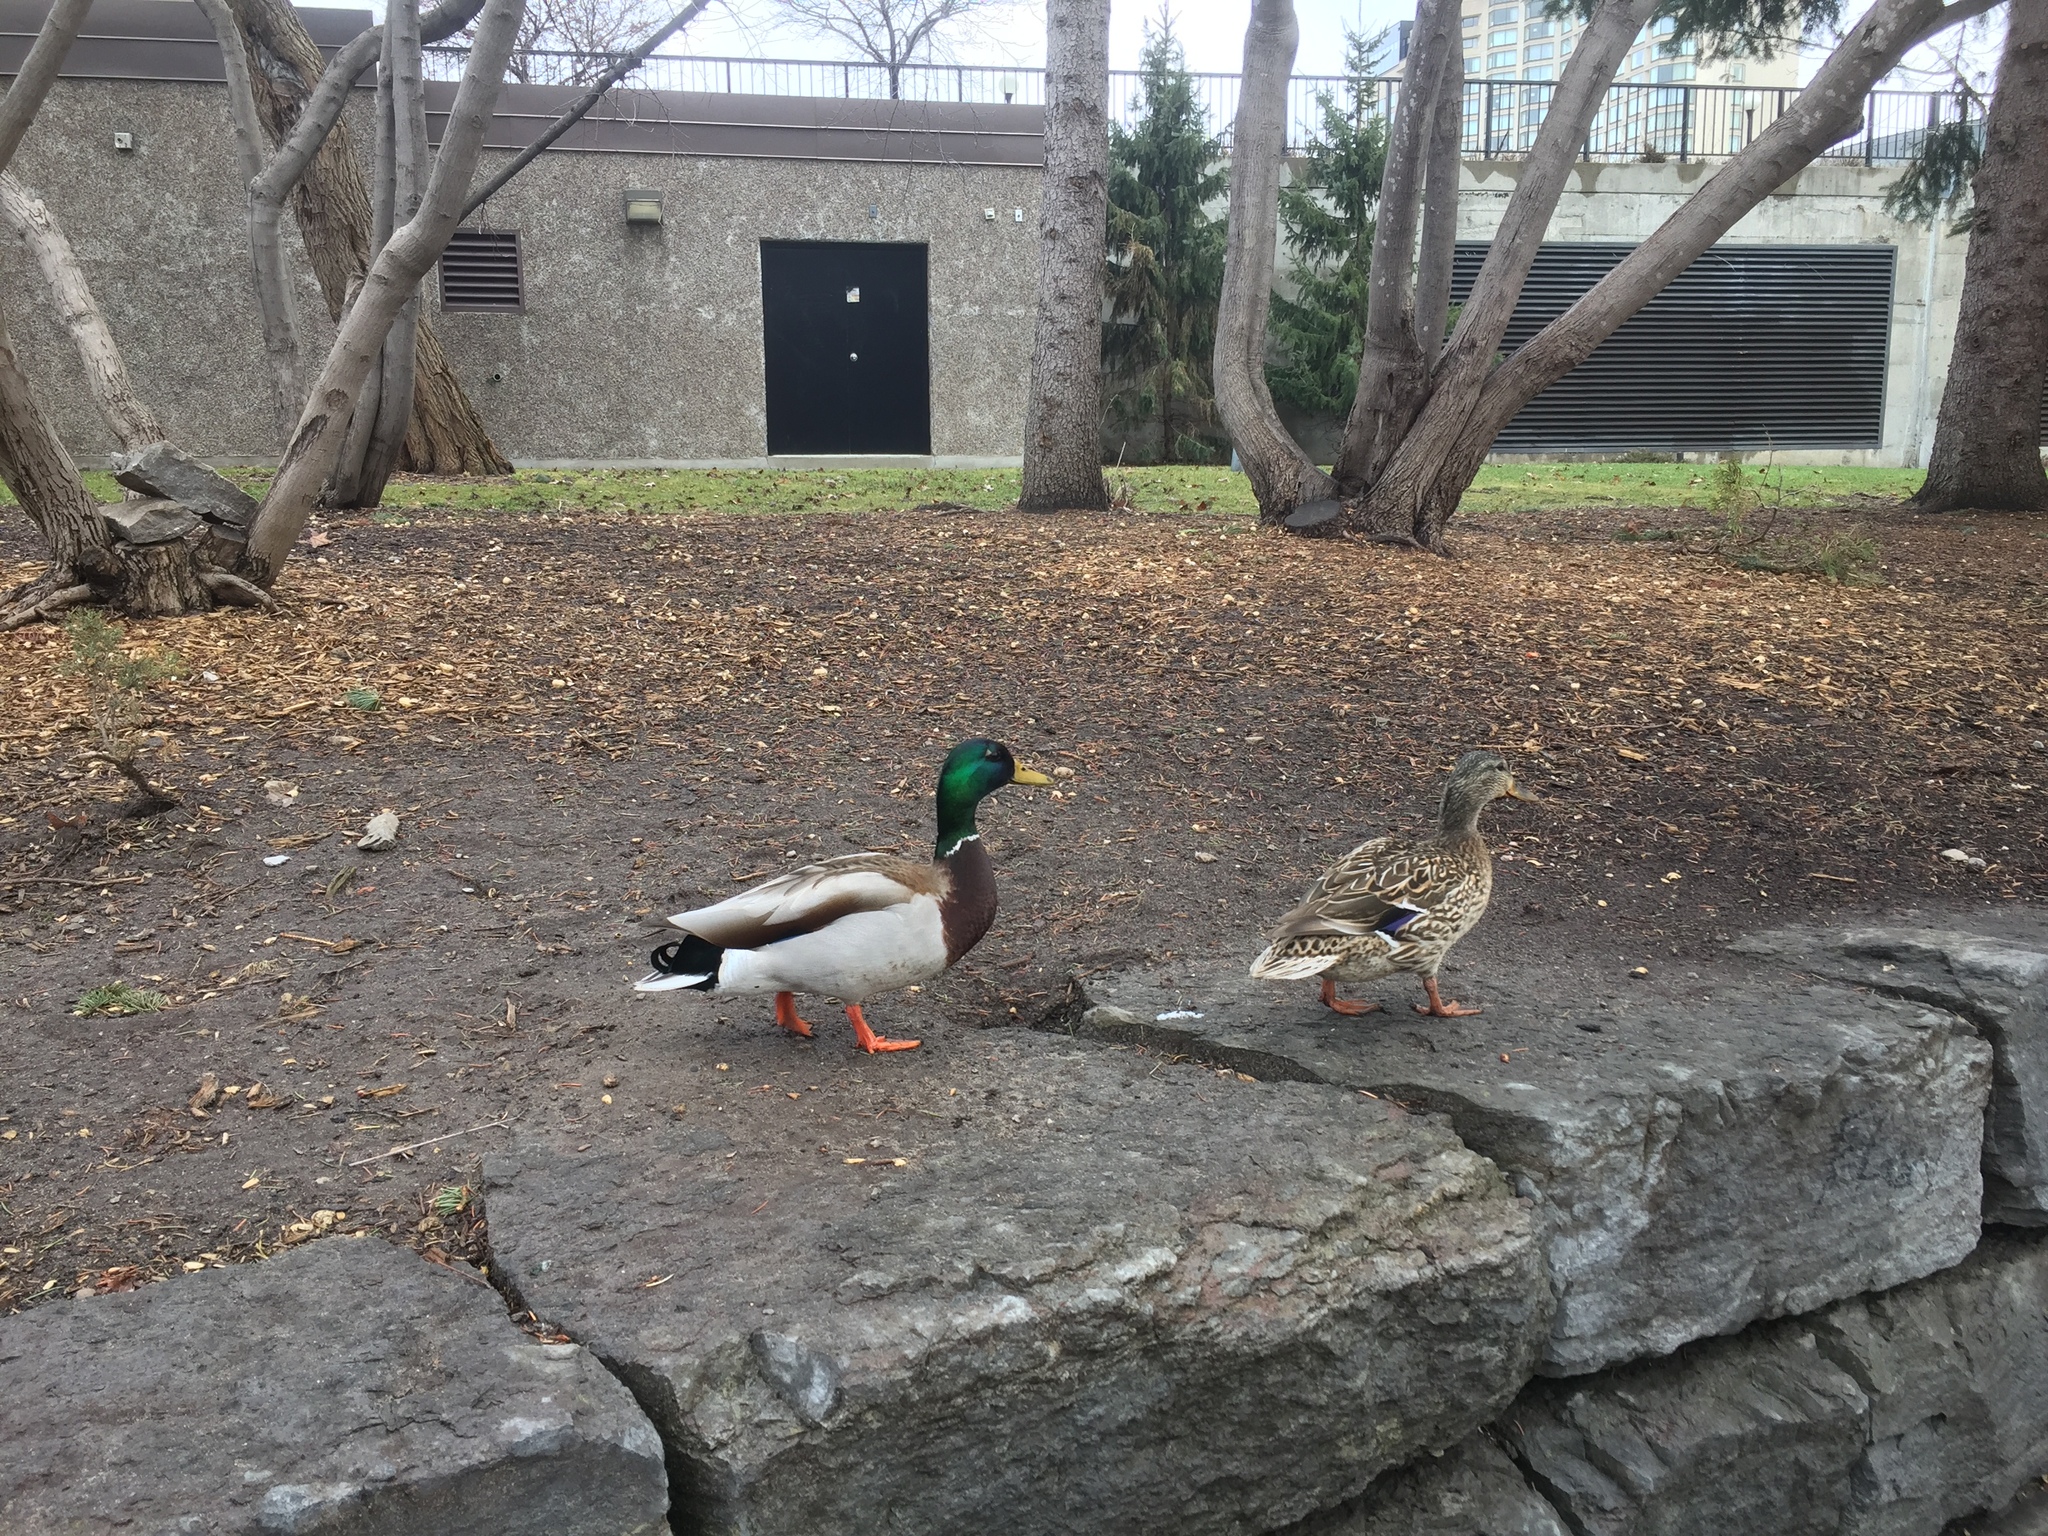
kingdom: Animalia
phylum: Chordata
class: Aves
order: Anseriformes
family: Anatidae
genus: Anas
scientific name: Anas platyrhynchos
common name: Mallard
